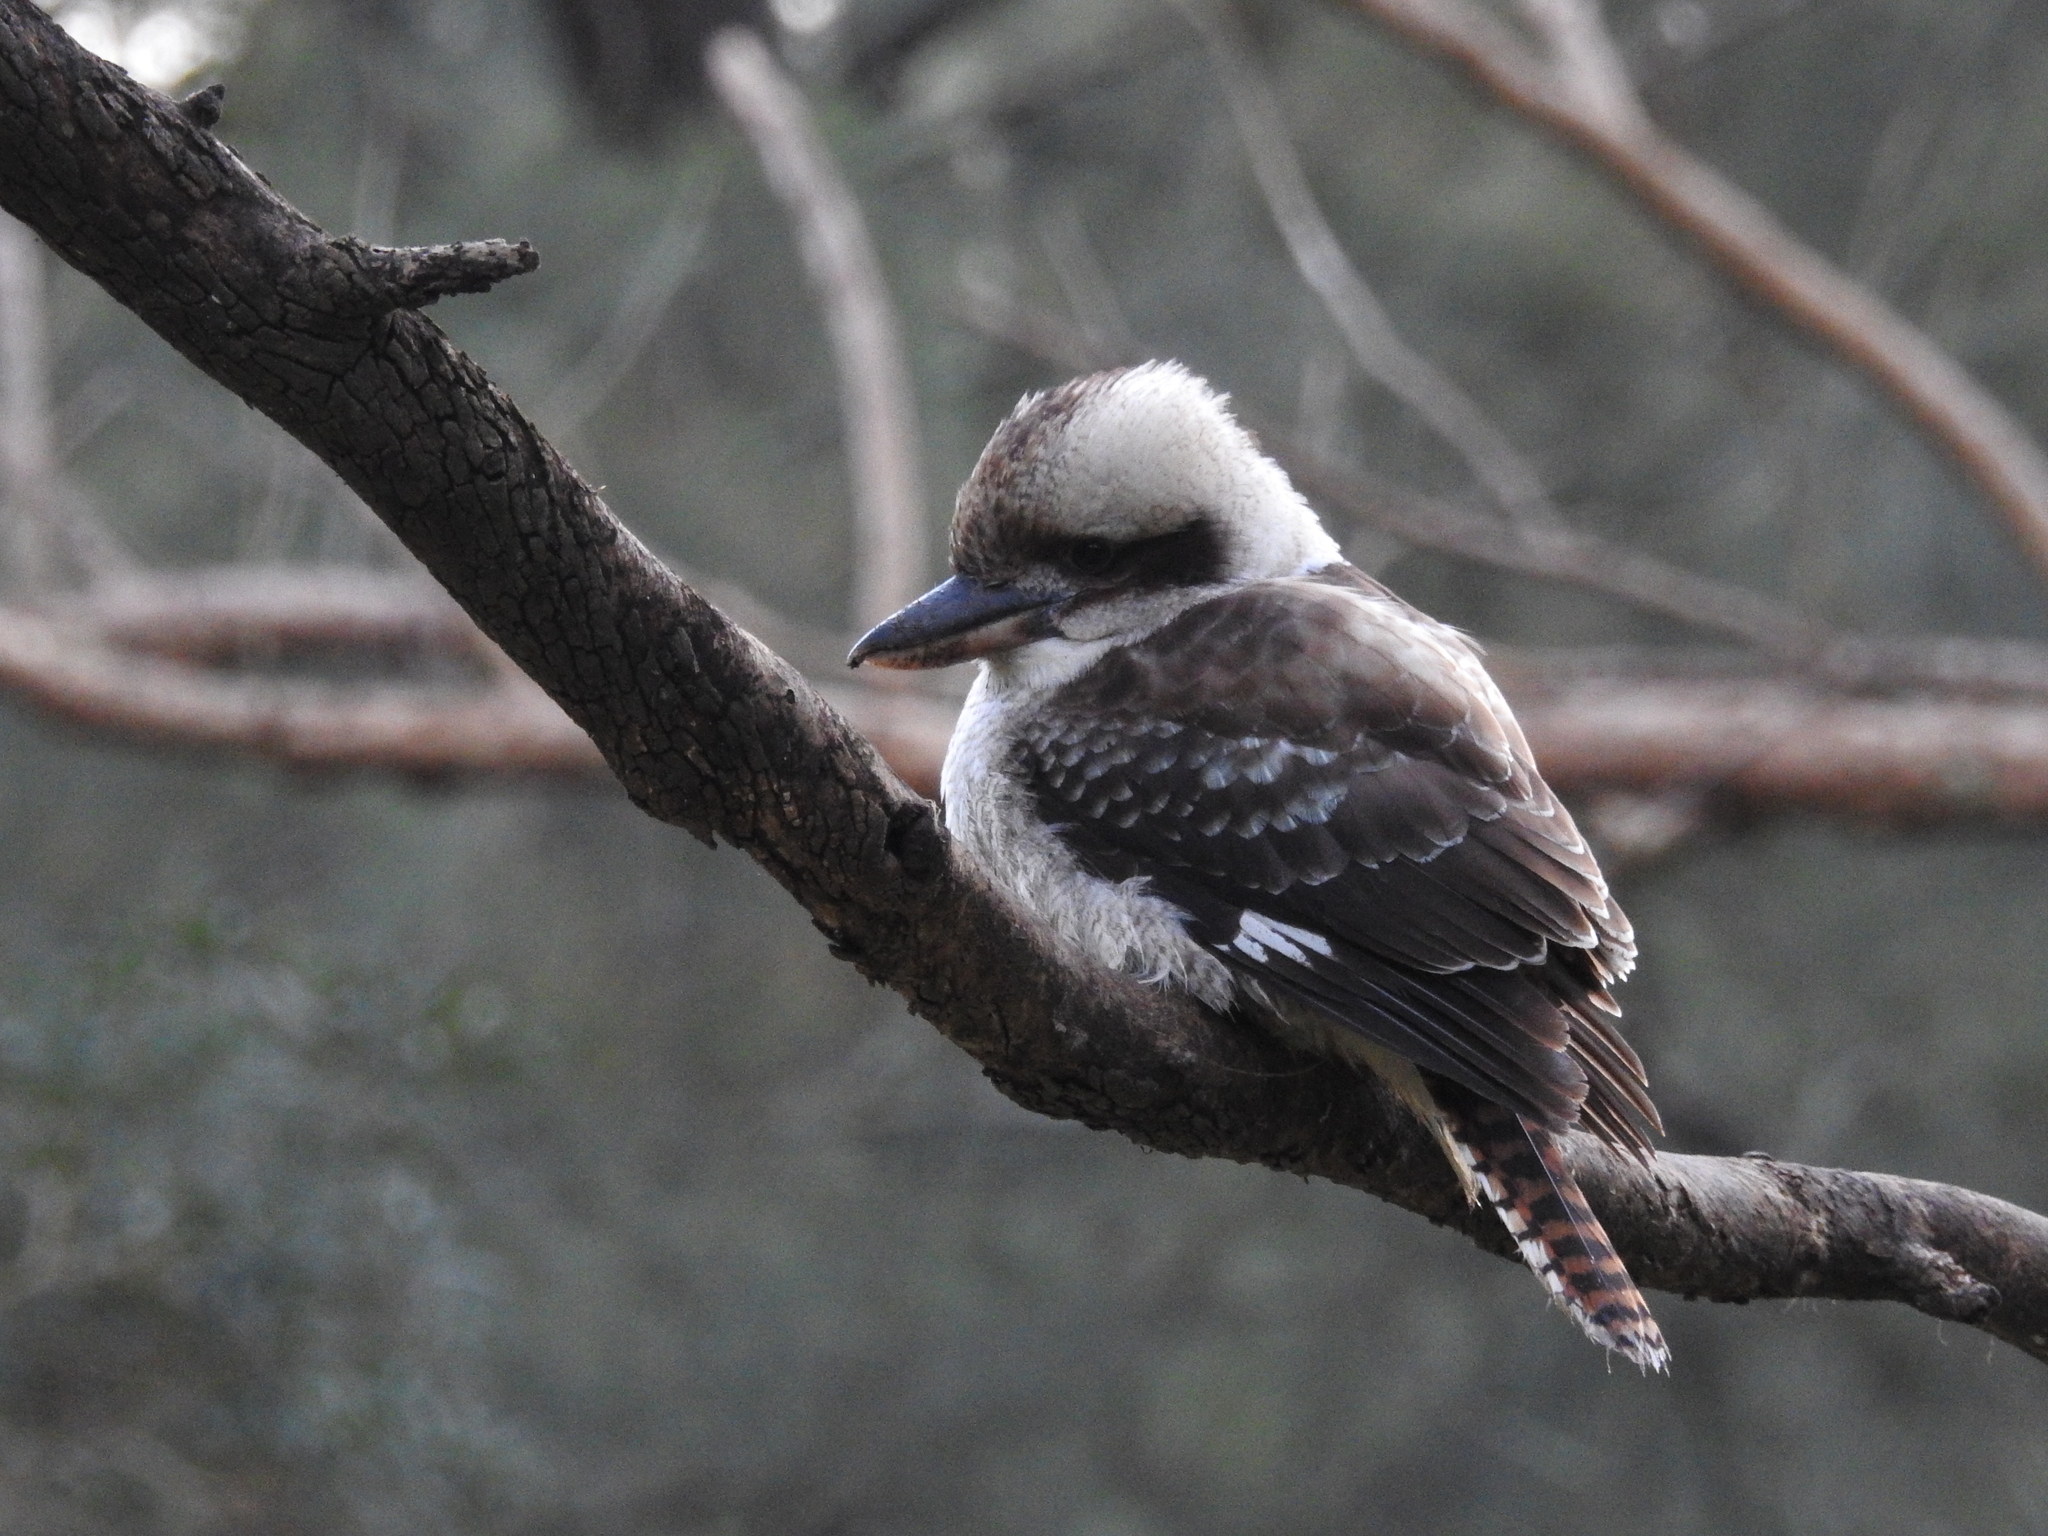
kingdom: Animalia
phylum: Chordata
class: Aves
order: Coraciiformes
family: Alcedinidae
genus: Dacelo
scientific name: Dacelo novaeguineae
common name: Laughing kookaburra
